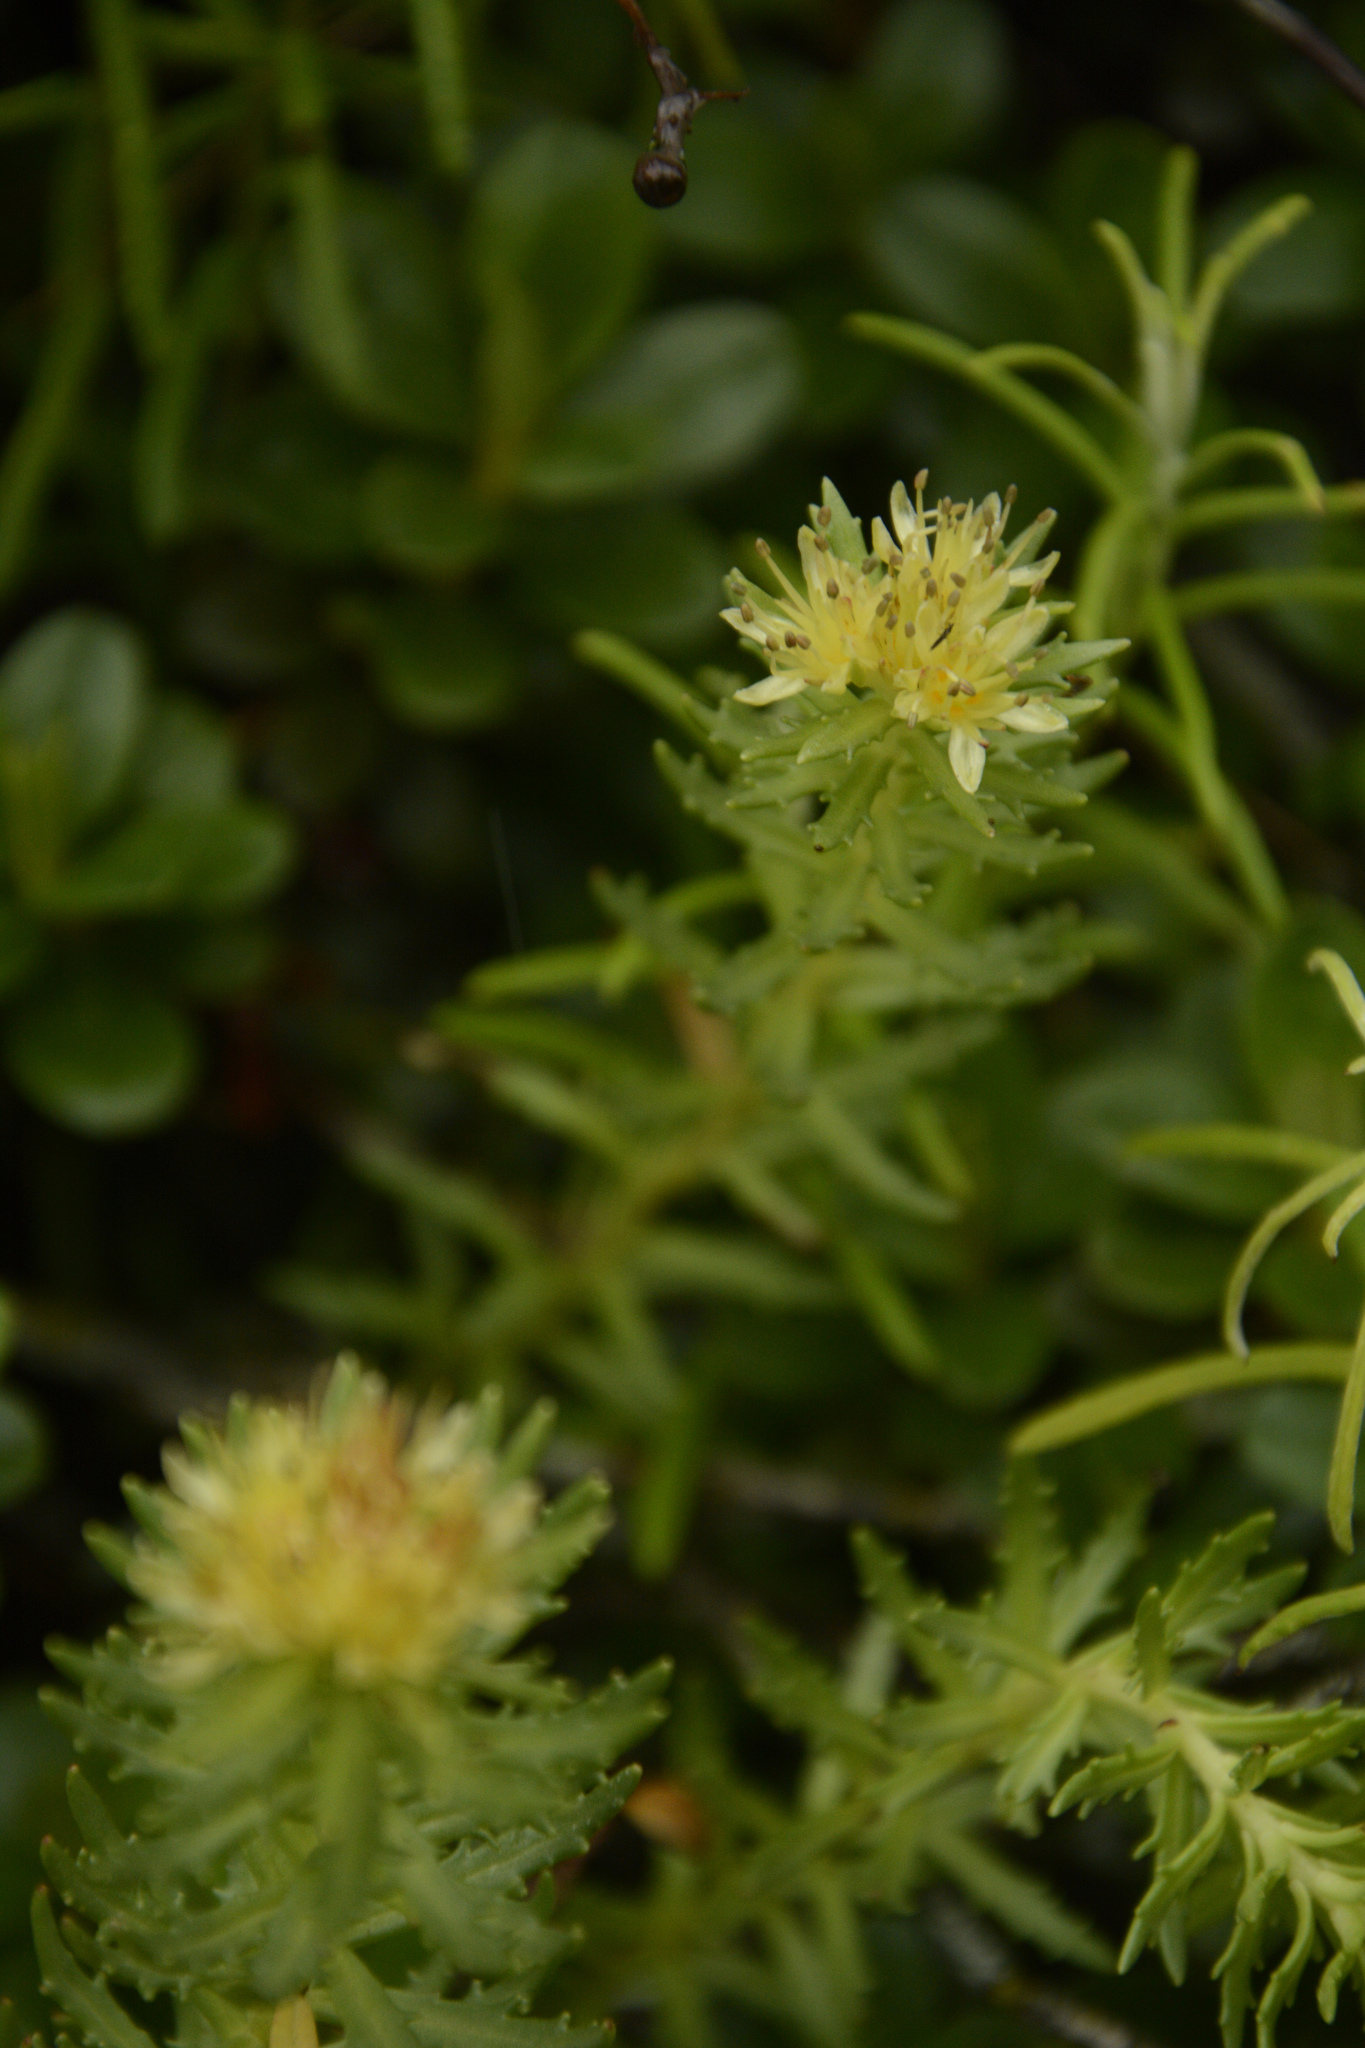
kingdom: Plantae
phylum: Tracheophyta
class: Magnoliopsida
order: Saxifragales
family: Crassulaceae
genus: Rhodiola
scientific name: Rhodiola wallichiana
